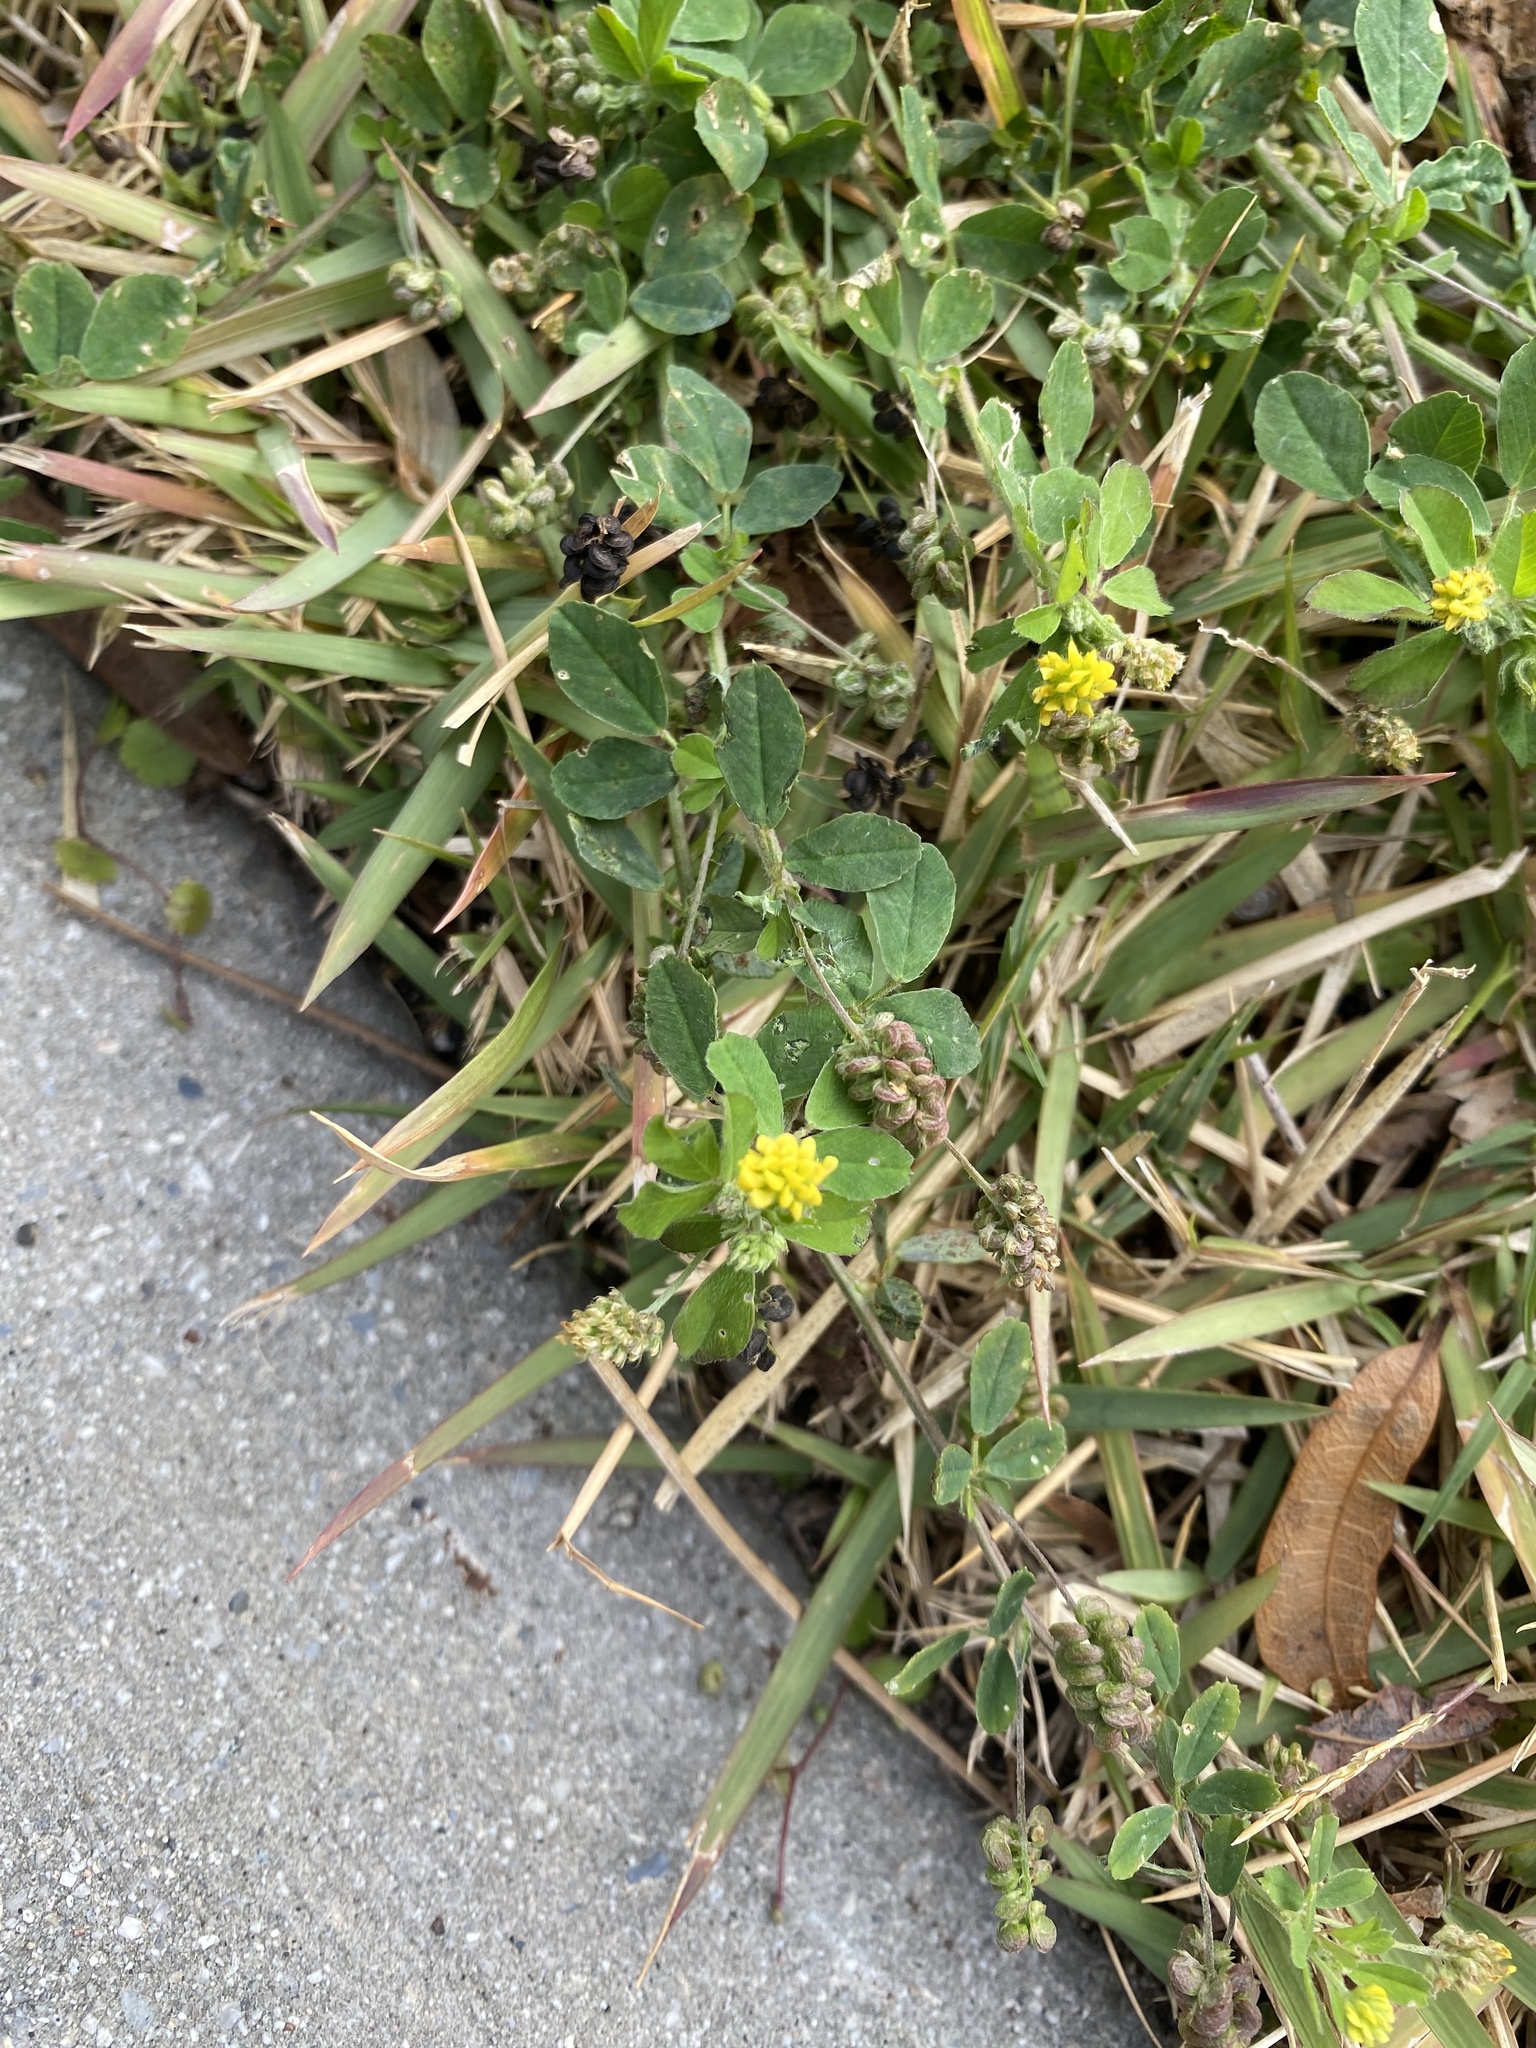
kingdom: Plantae
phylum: Tracheophyta
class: Magnoliopsida
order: Fabales
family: Fabaceae
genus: Medicago
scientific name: Medicago lupulina
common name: Black medick
